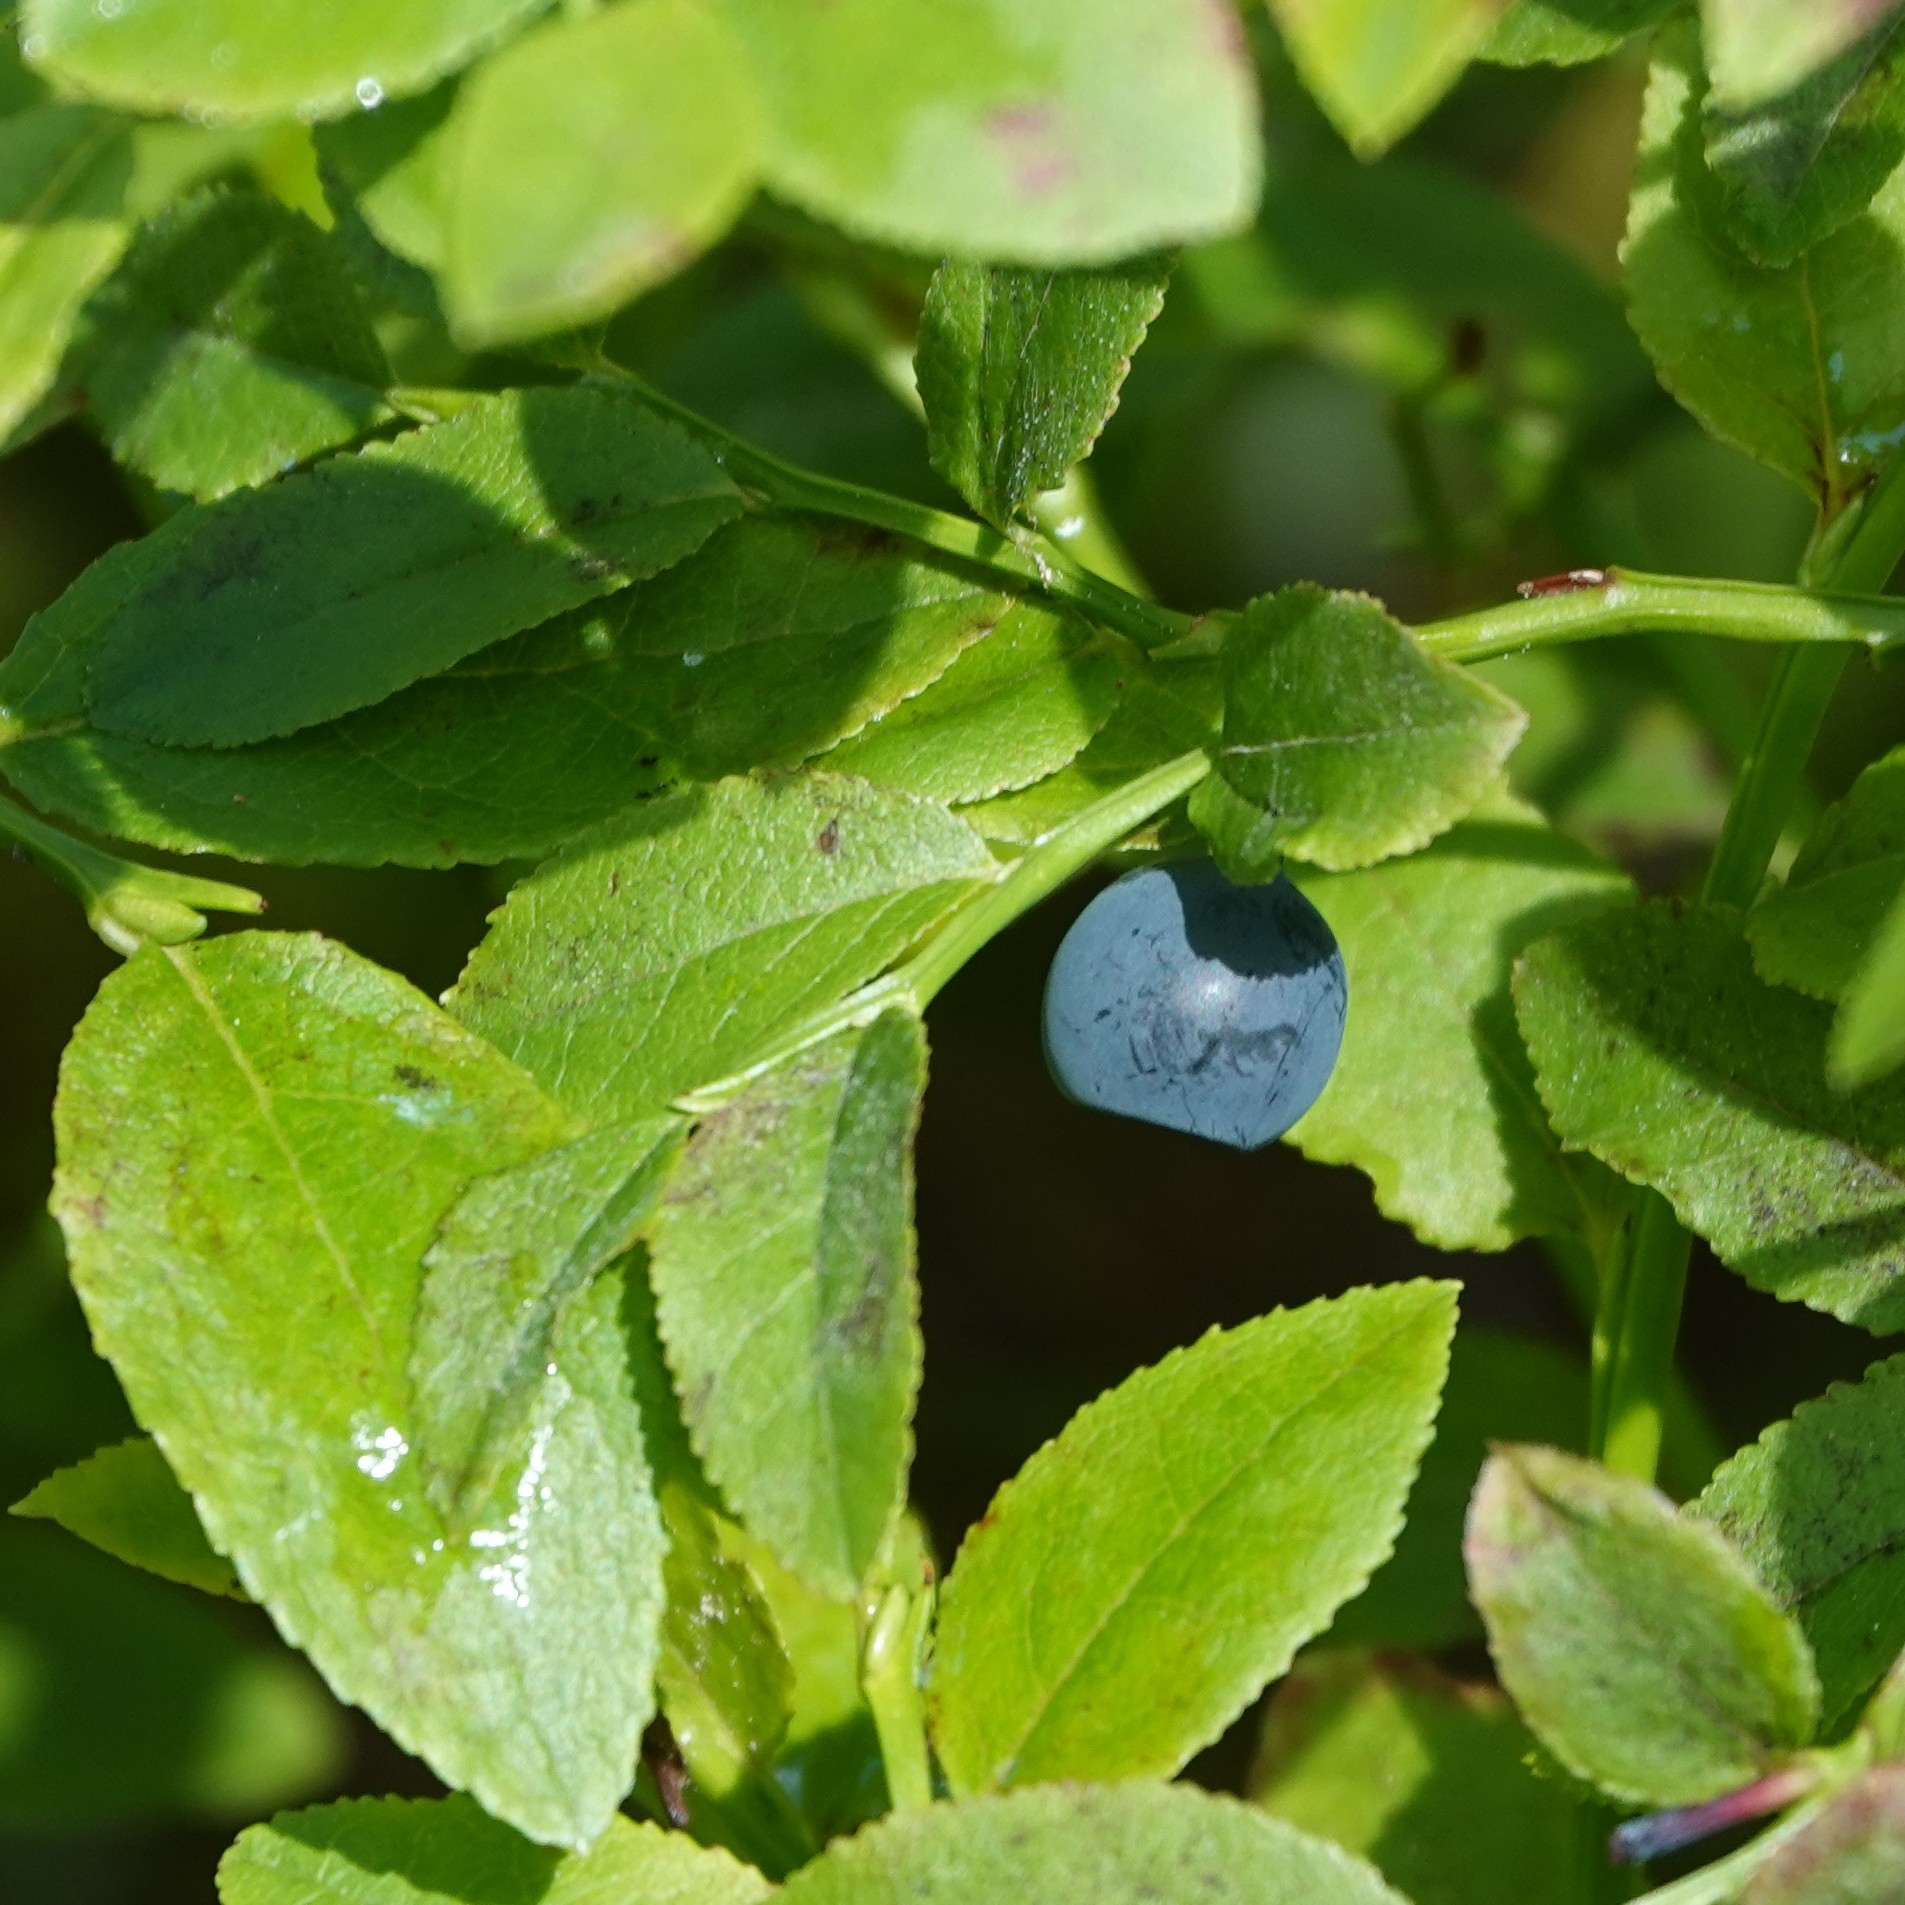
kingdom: Plantae
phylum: Tracheophyta
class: Magnoliopsida
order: Ericales
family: Ericaceae
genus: Vaccinium
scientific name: Vaccinium myrtillus
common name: Bilberry
